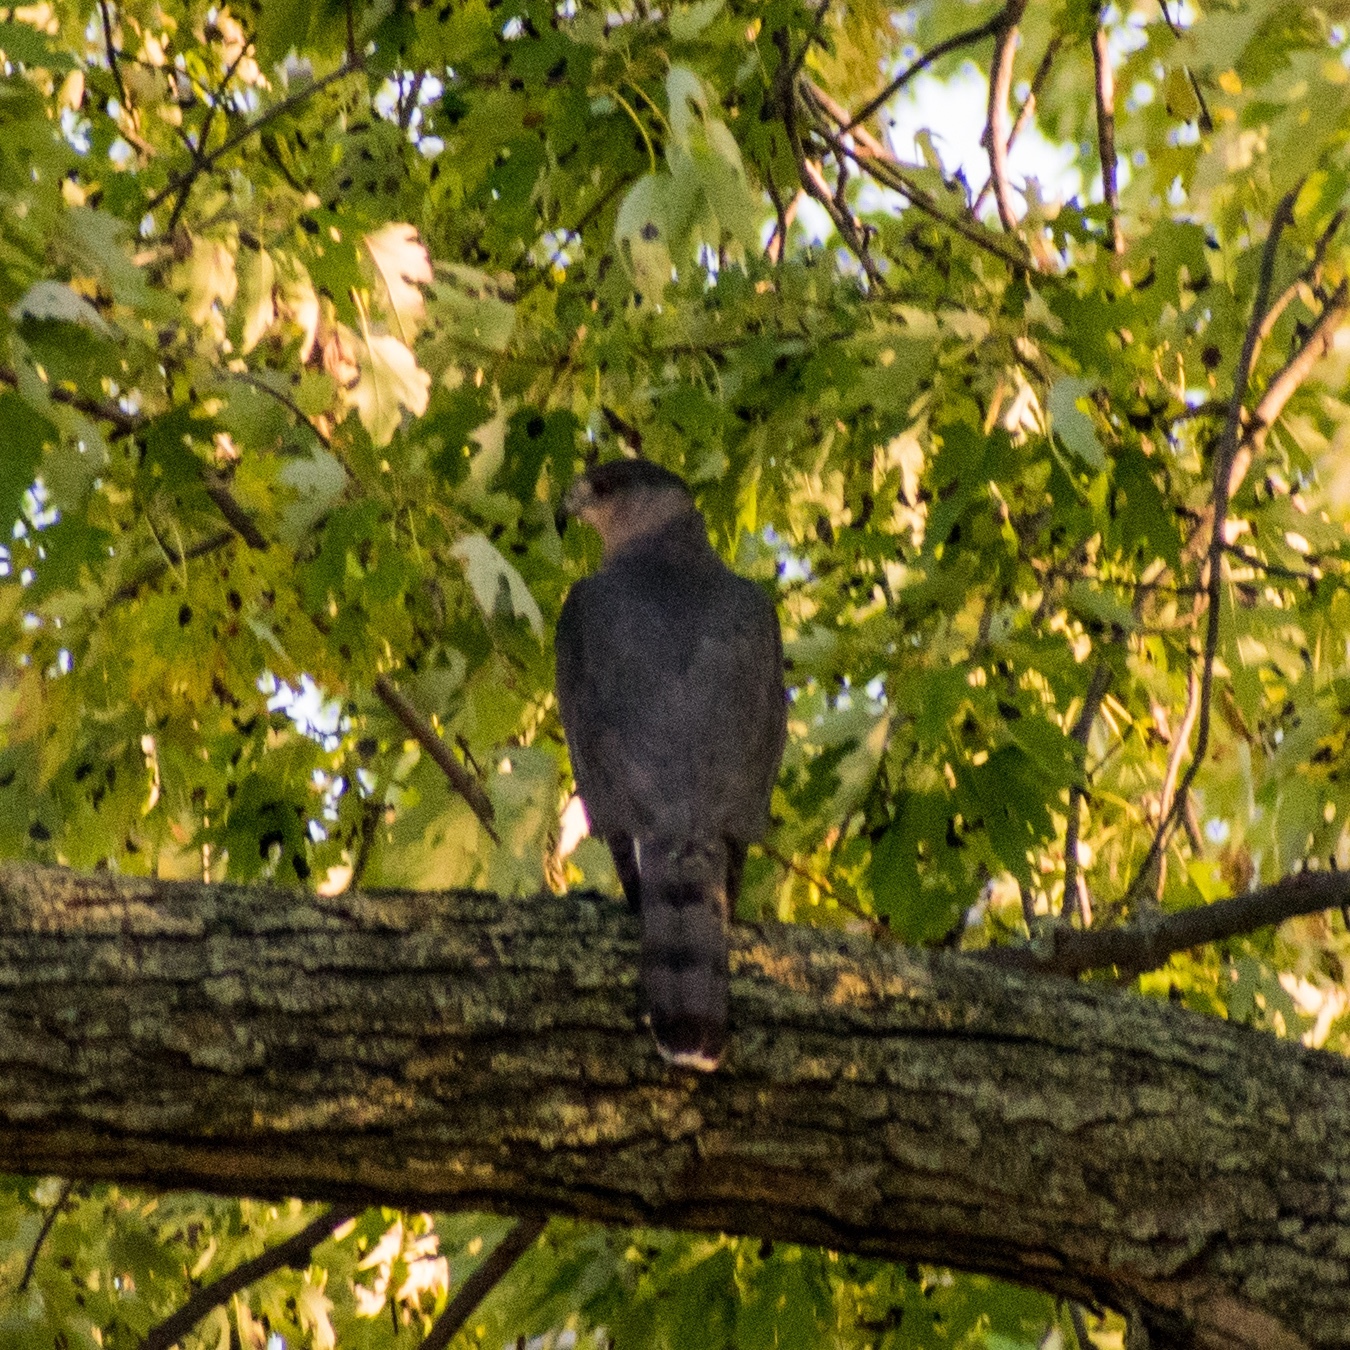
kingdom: Animalia
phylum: Chordata
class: Aves
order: Accipitriformes
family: Accipitridae
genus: Accipiter
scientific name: Accipiter cooperii
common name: Cooper's hawk
